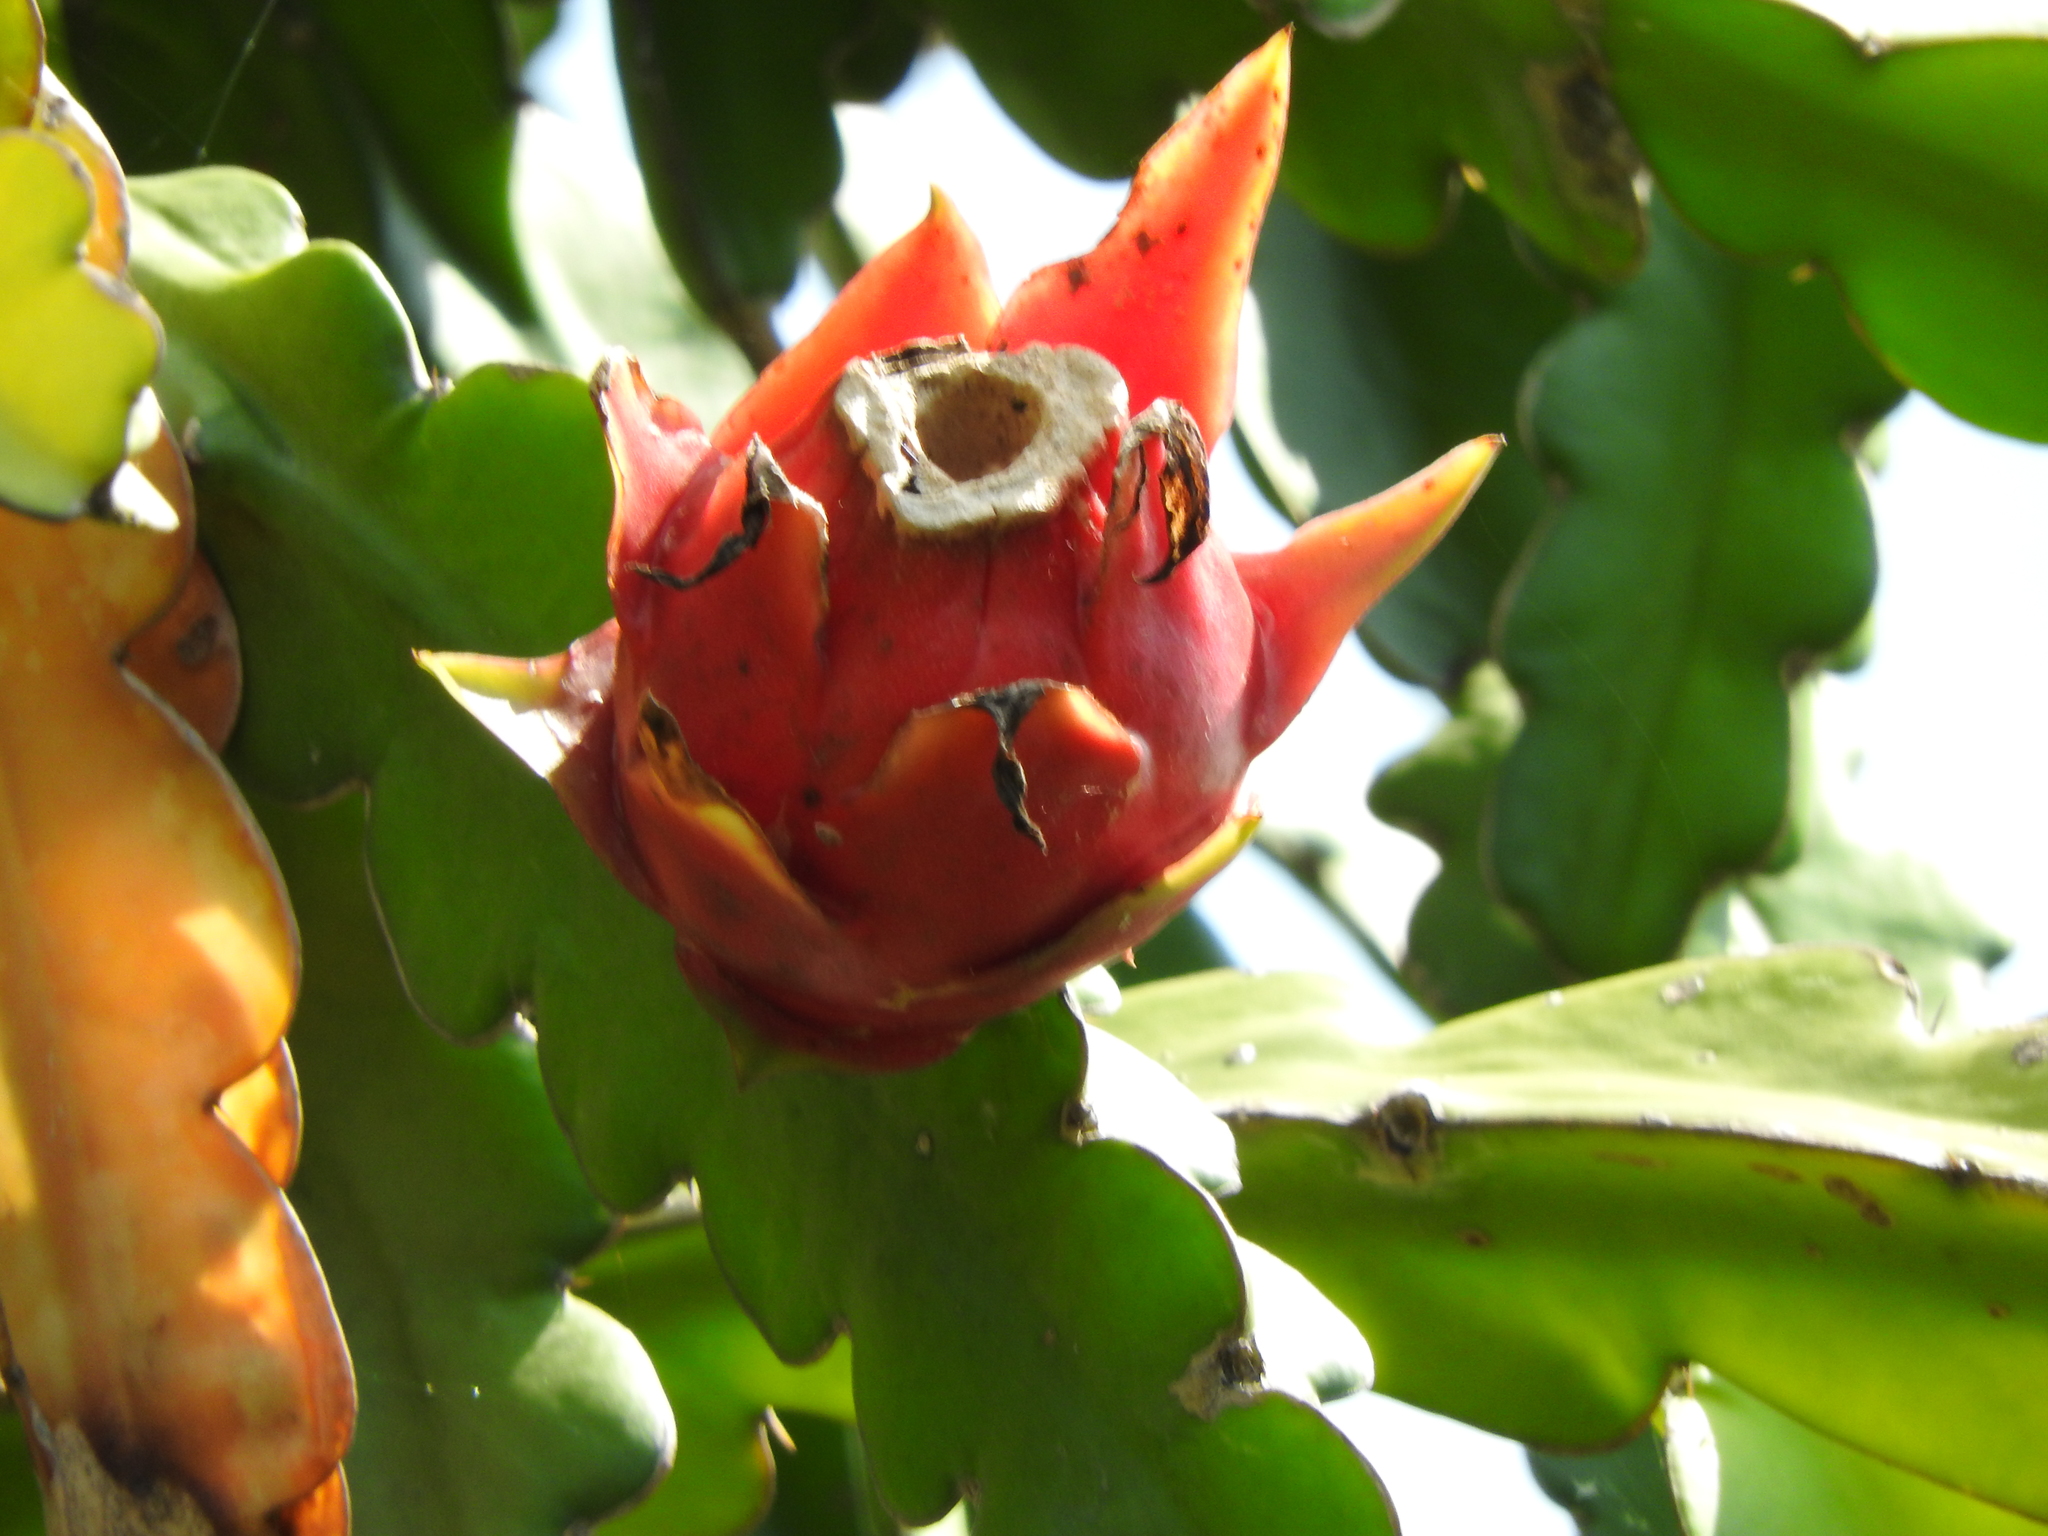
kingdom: Plantae
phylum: Tracheophyta
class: Magnoliopsida
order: Caryophyllales
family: Cactaceae
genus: Selenicereus
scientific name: Selenicereus undatus
